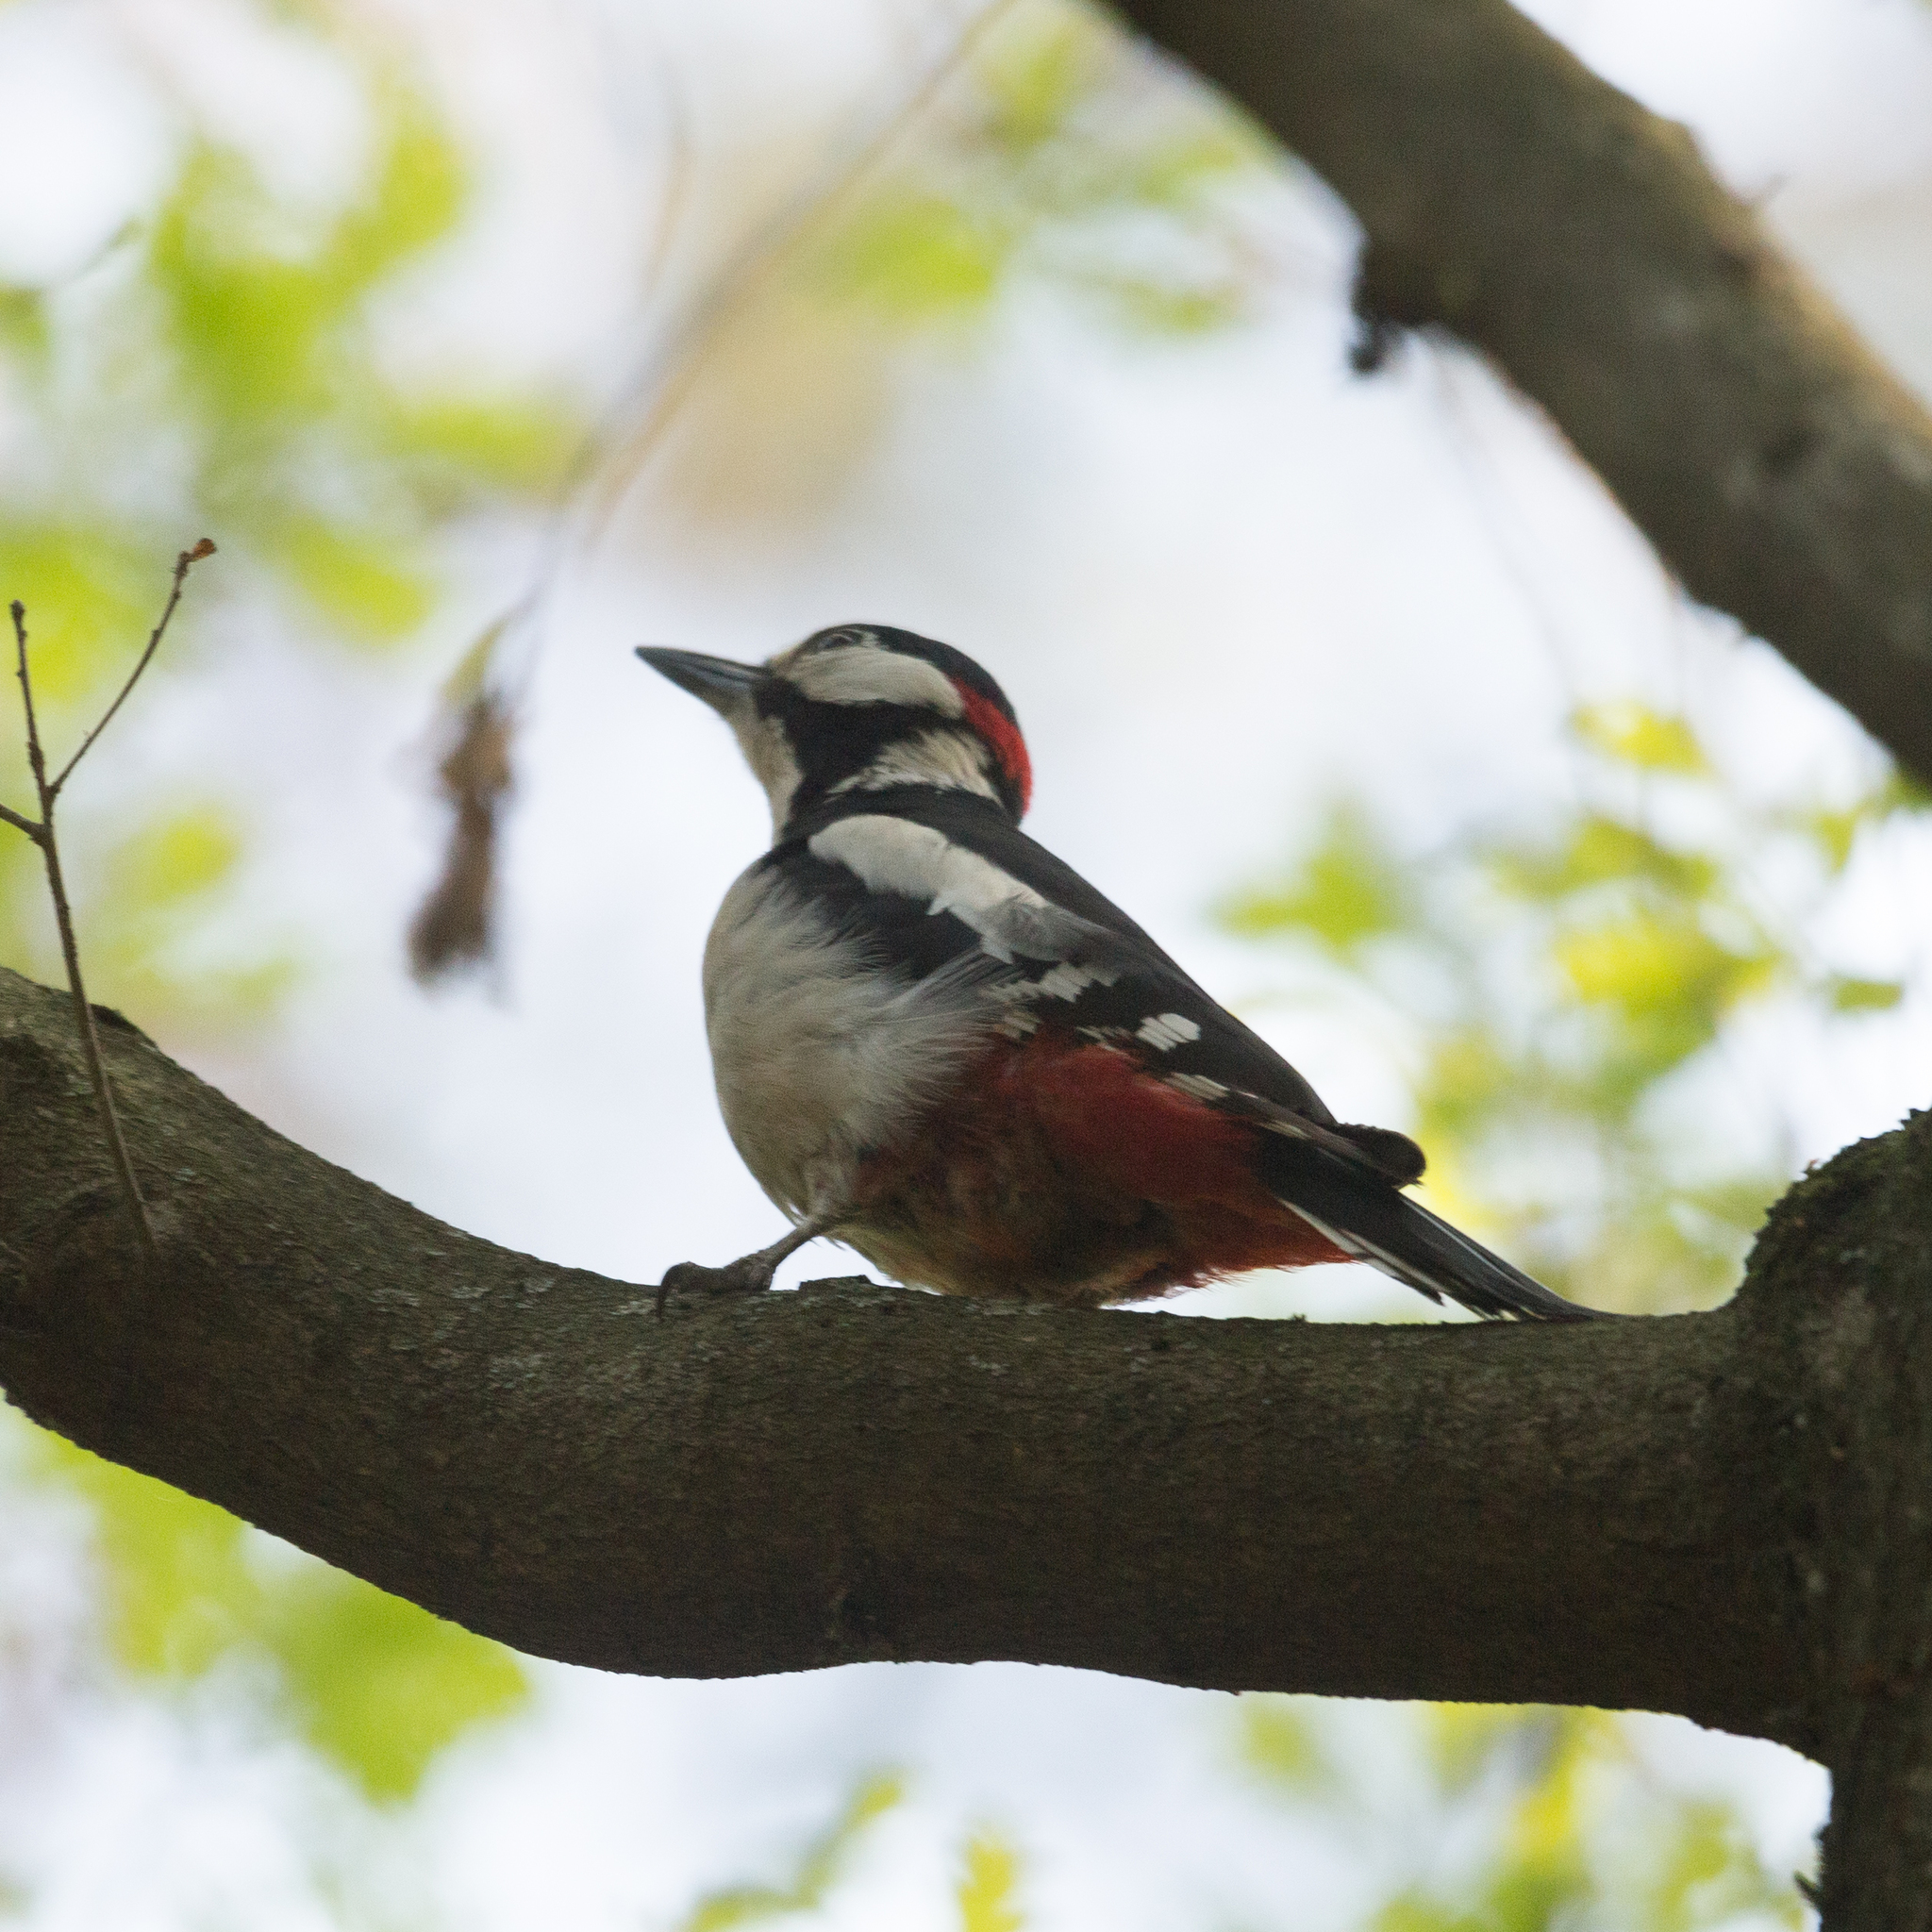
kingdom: Animalia
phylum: Chordata
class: Aves
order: Piciformes
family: Picidae
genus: Dendrocopos
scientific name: Dendrocopos major
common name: Great spotted woodpecker
